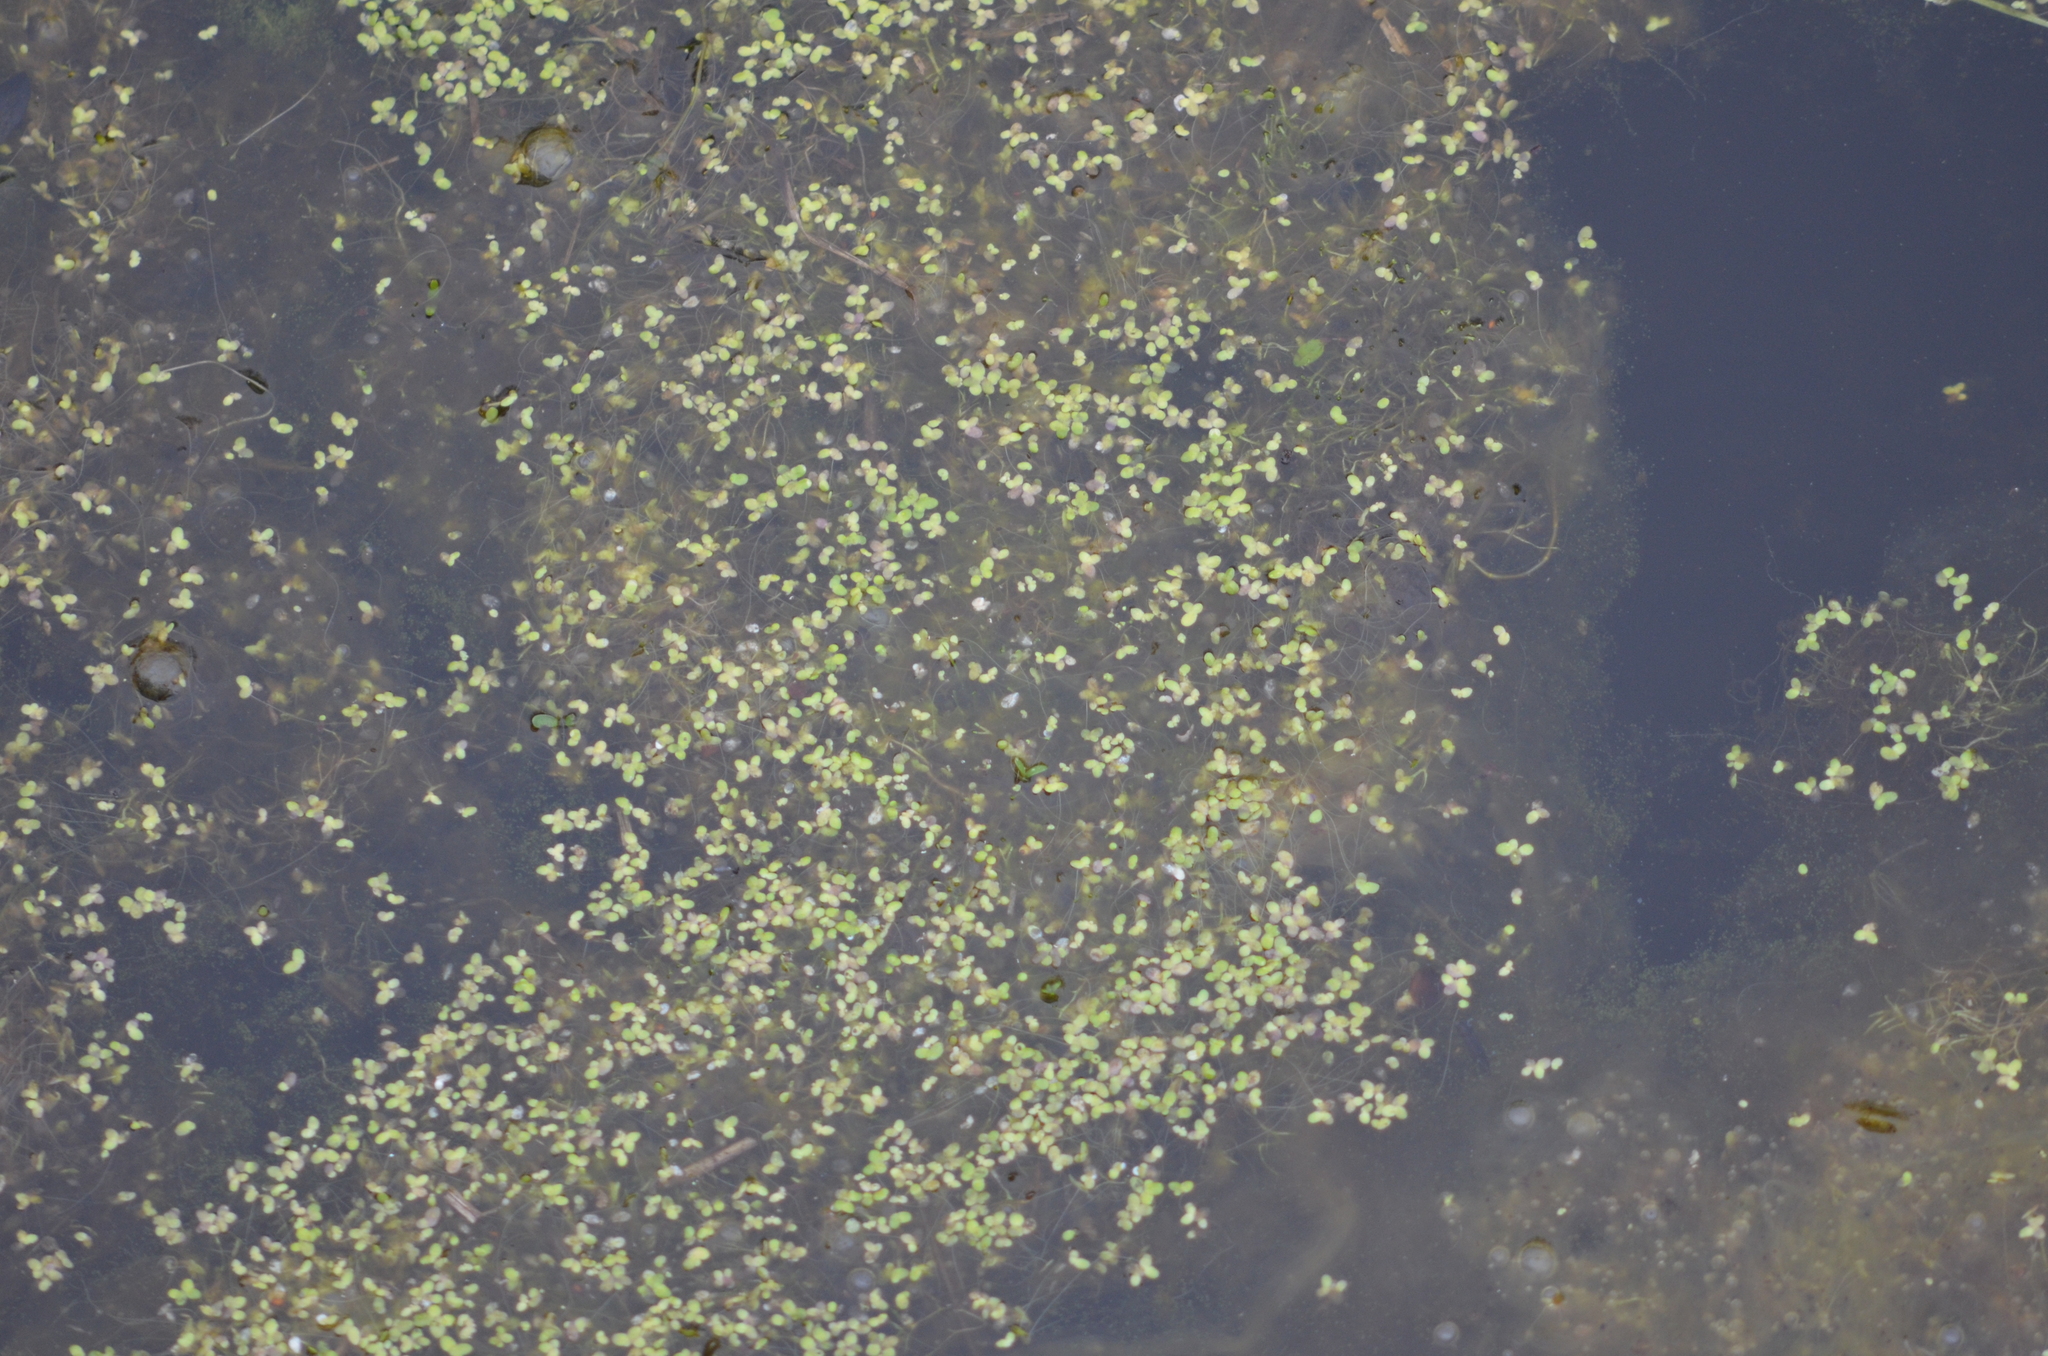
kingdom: Plantae
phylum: Tracheophyta
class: Liliopsida
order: Alismatales
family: Araceae
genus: Lemna
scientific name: Lemna minor
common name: Common duckweed
